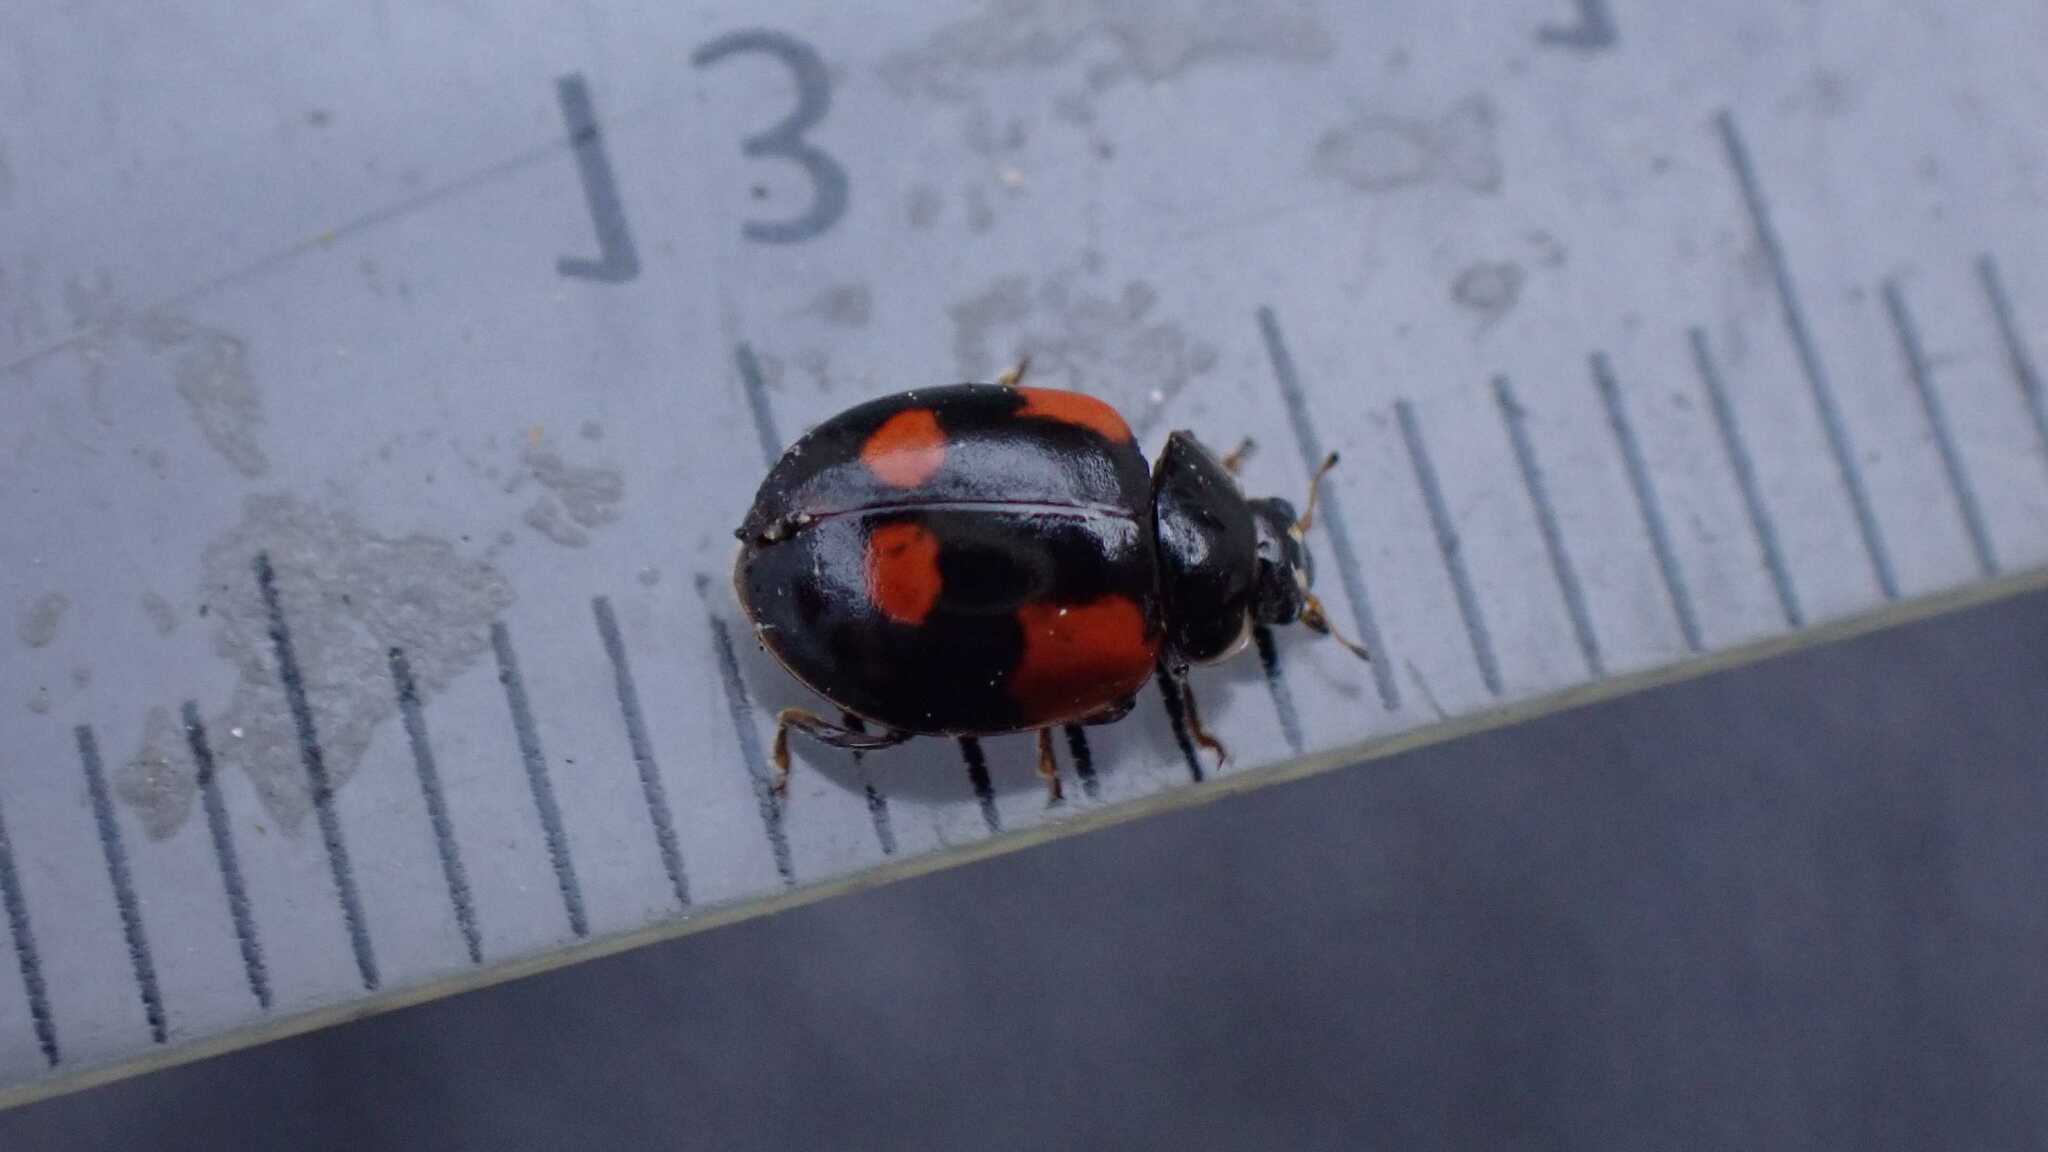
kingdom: Animalia
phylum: Arthropoda
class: Insecta
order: Coleoptera
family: Coccinellidae
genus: Adalia
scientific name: Adalia bipunctata
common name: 2-spot ladybird
